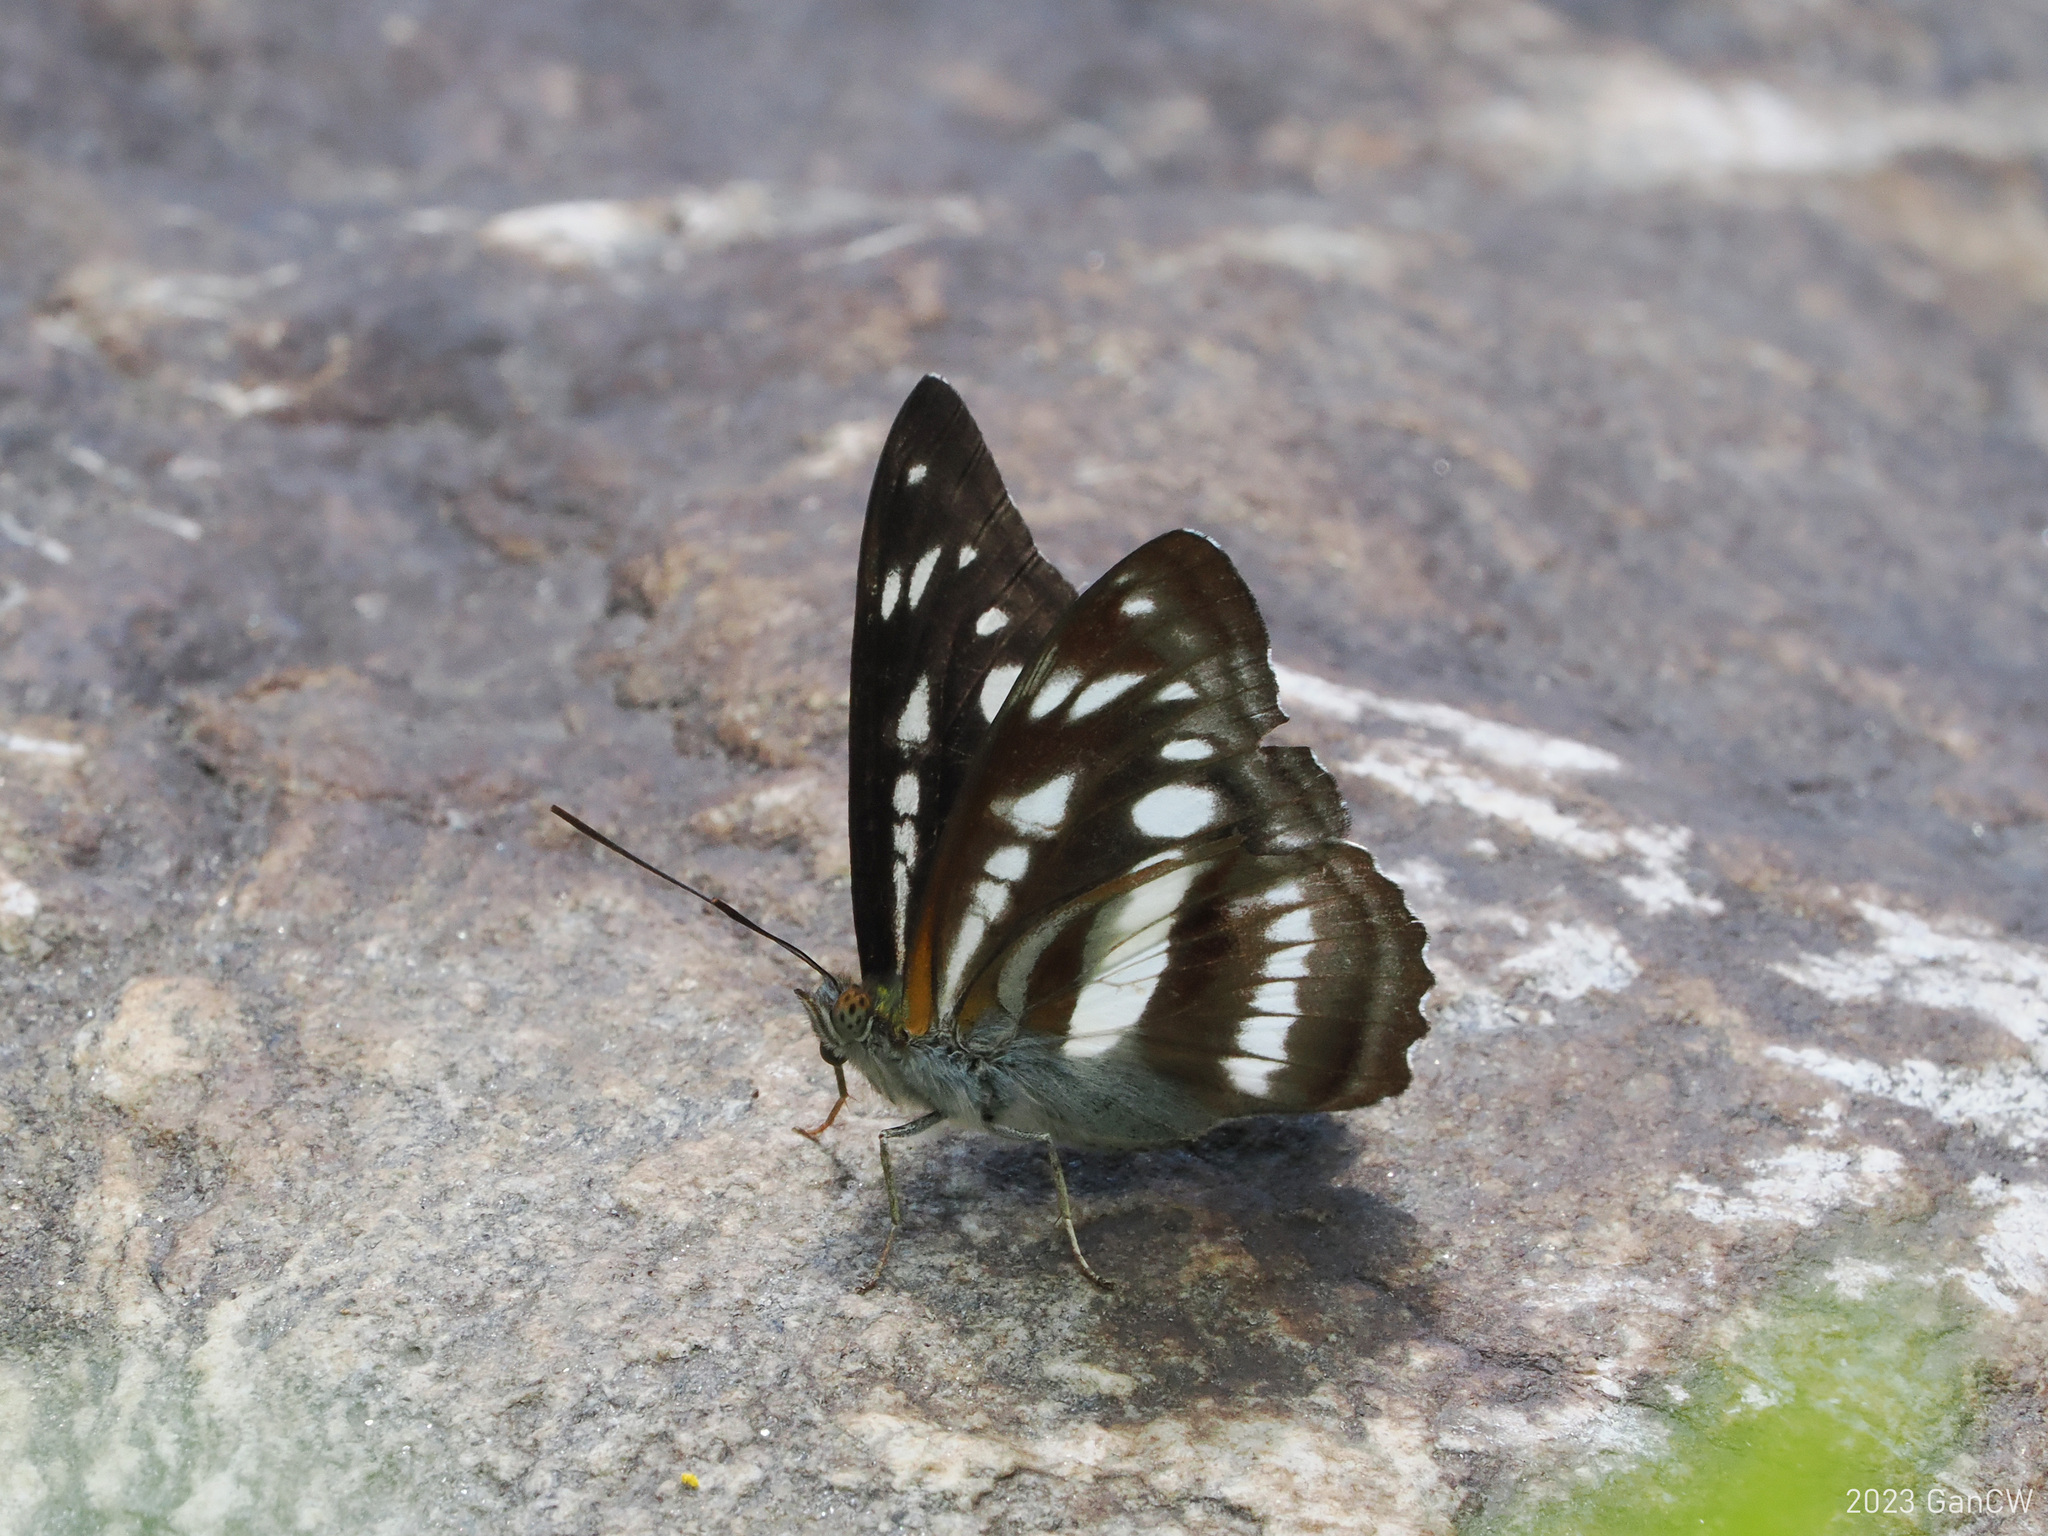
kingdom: Animalia
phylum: Arthropoda
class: Insecta
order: Lepidoptera
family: Nymphalidae
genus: Parathyma
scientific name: Parathyma opalina
